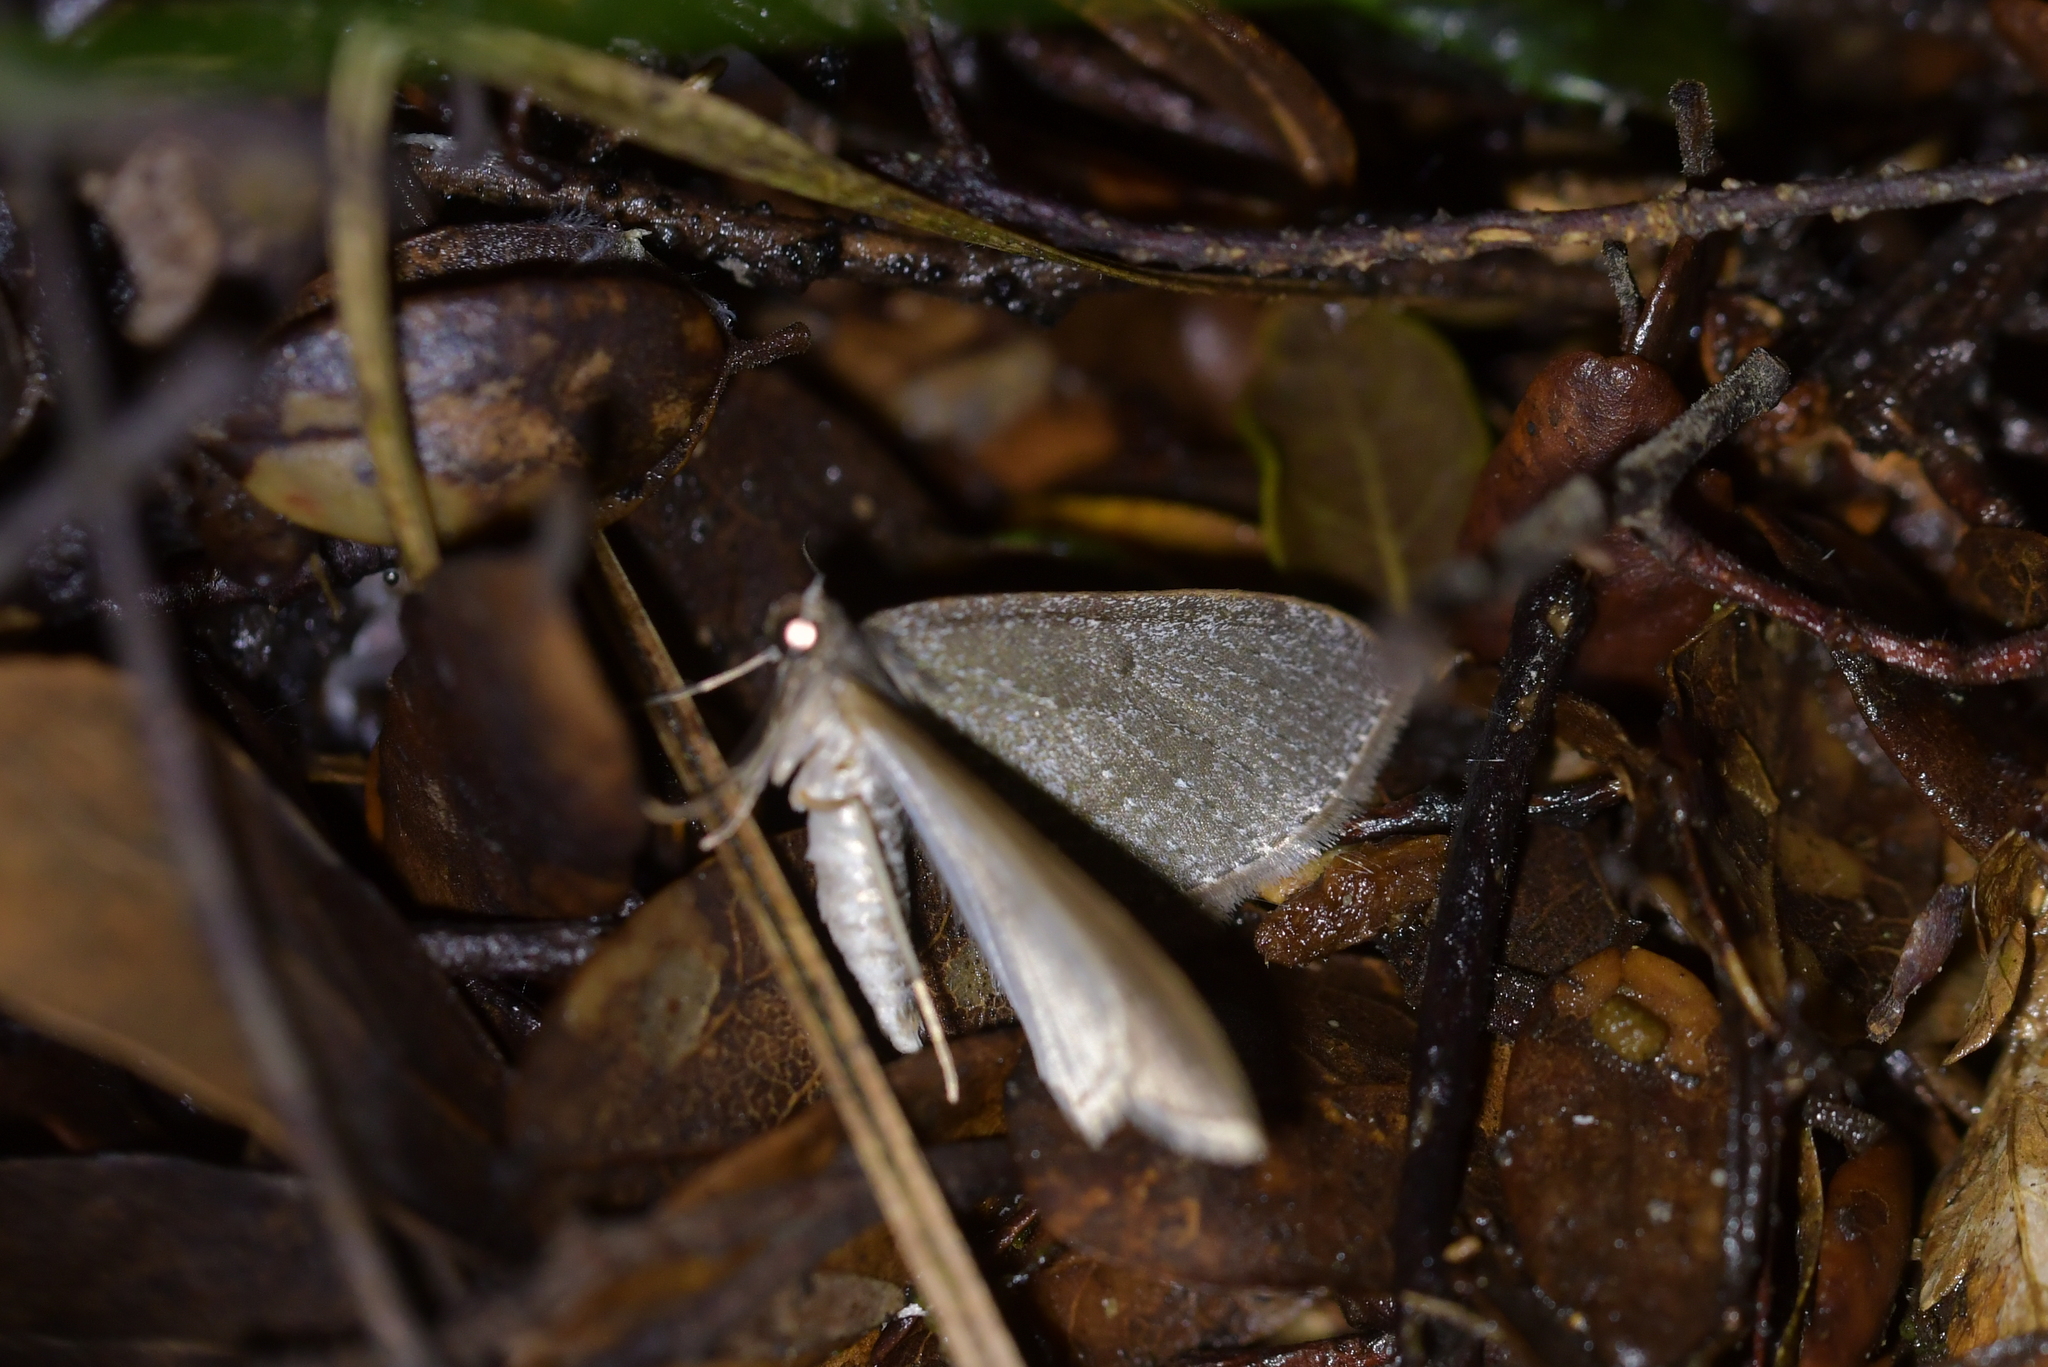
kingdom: Animalia
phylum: Arthropoda
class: Insecta
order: Lepidoptera
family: Geometridae
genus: Poecilasthena
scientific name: Poecilasthena pulchraria
